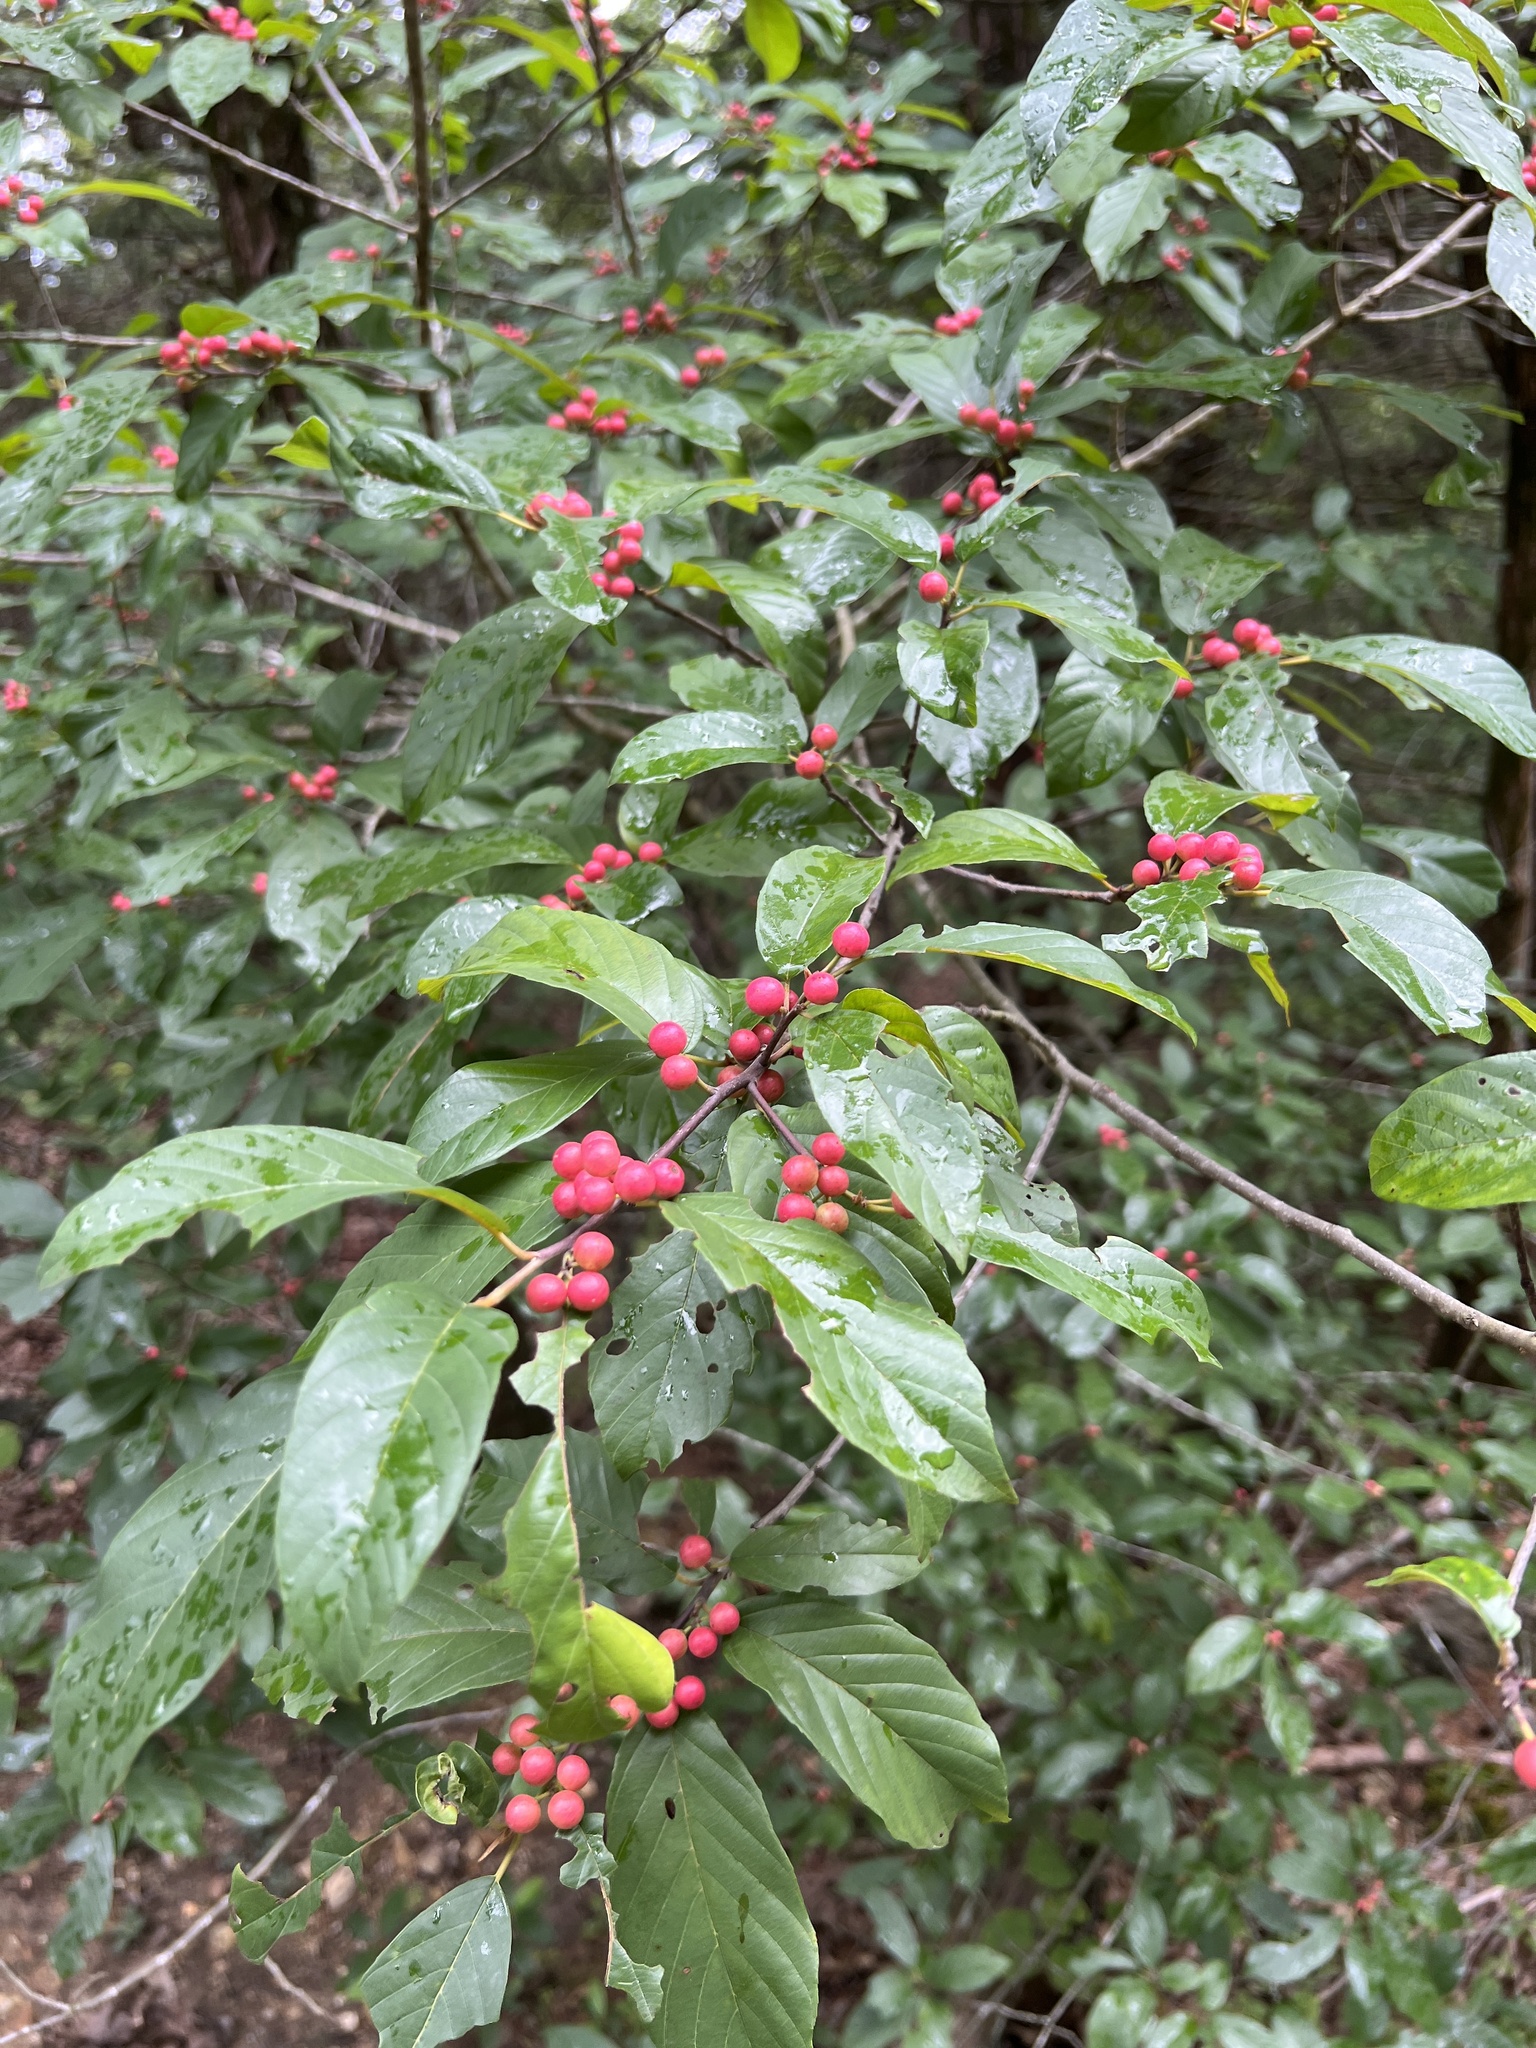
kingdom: Plantae
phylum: Tracheophyta
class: Magnoliopsida
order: Rosales
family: Rhamnaceae
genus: Frangula
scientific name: Frangula caroliniana
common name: Carolina buckthorn
